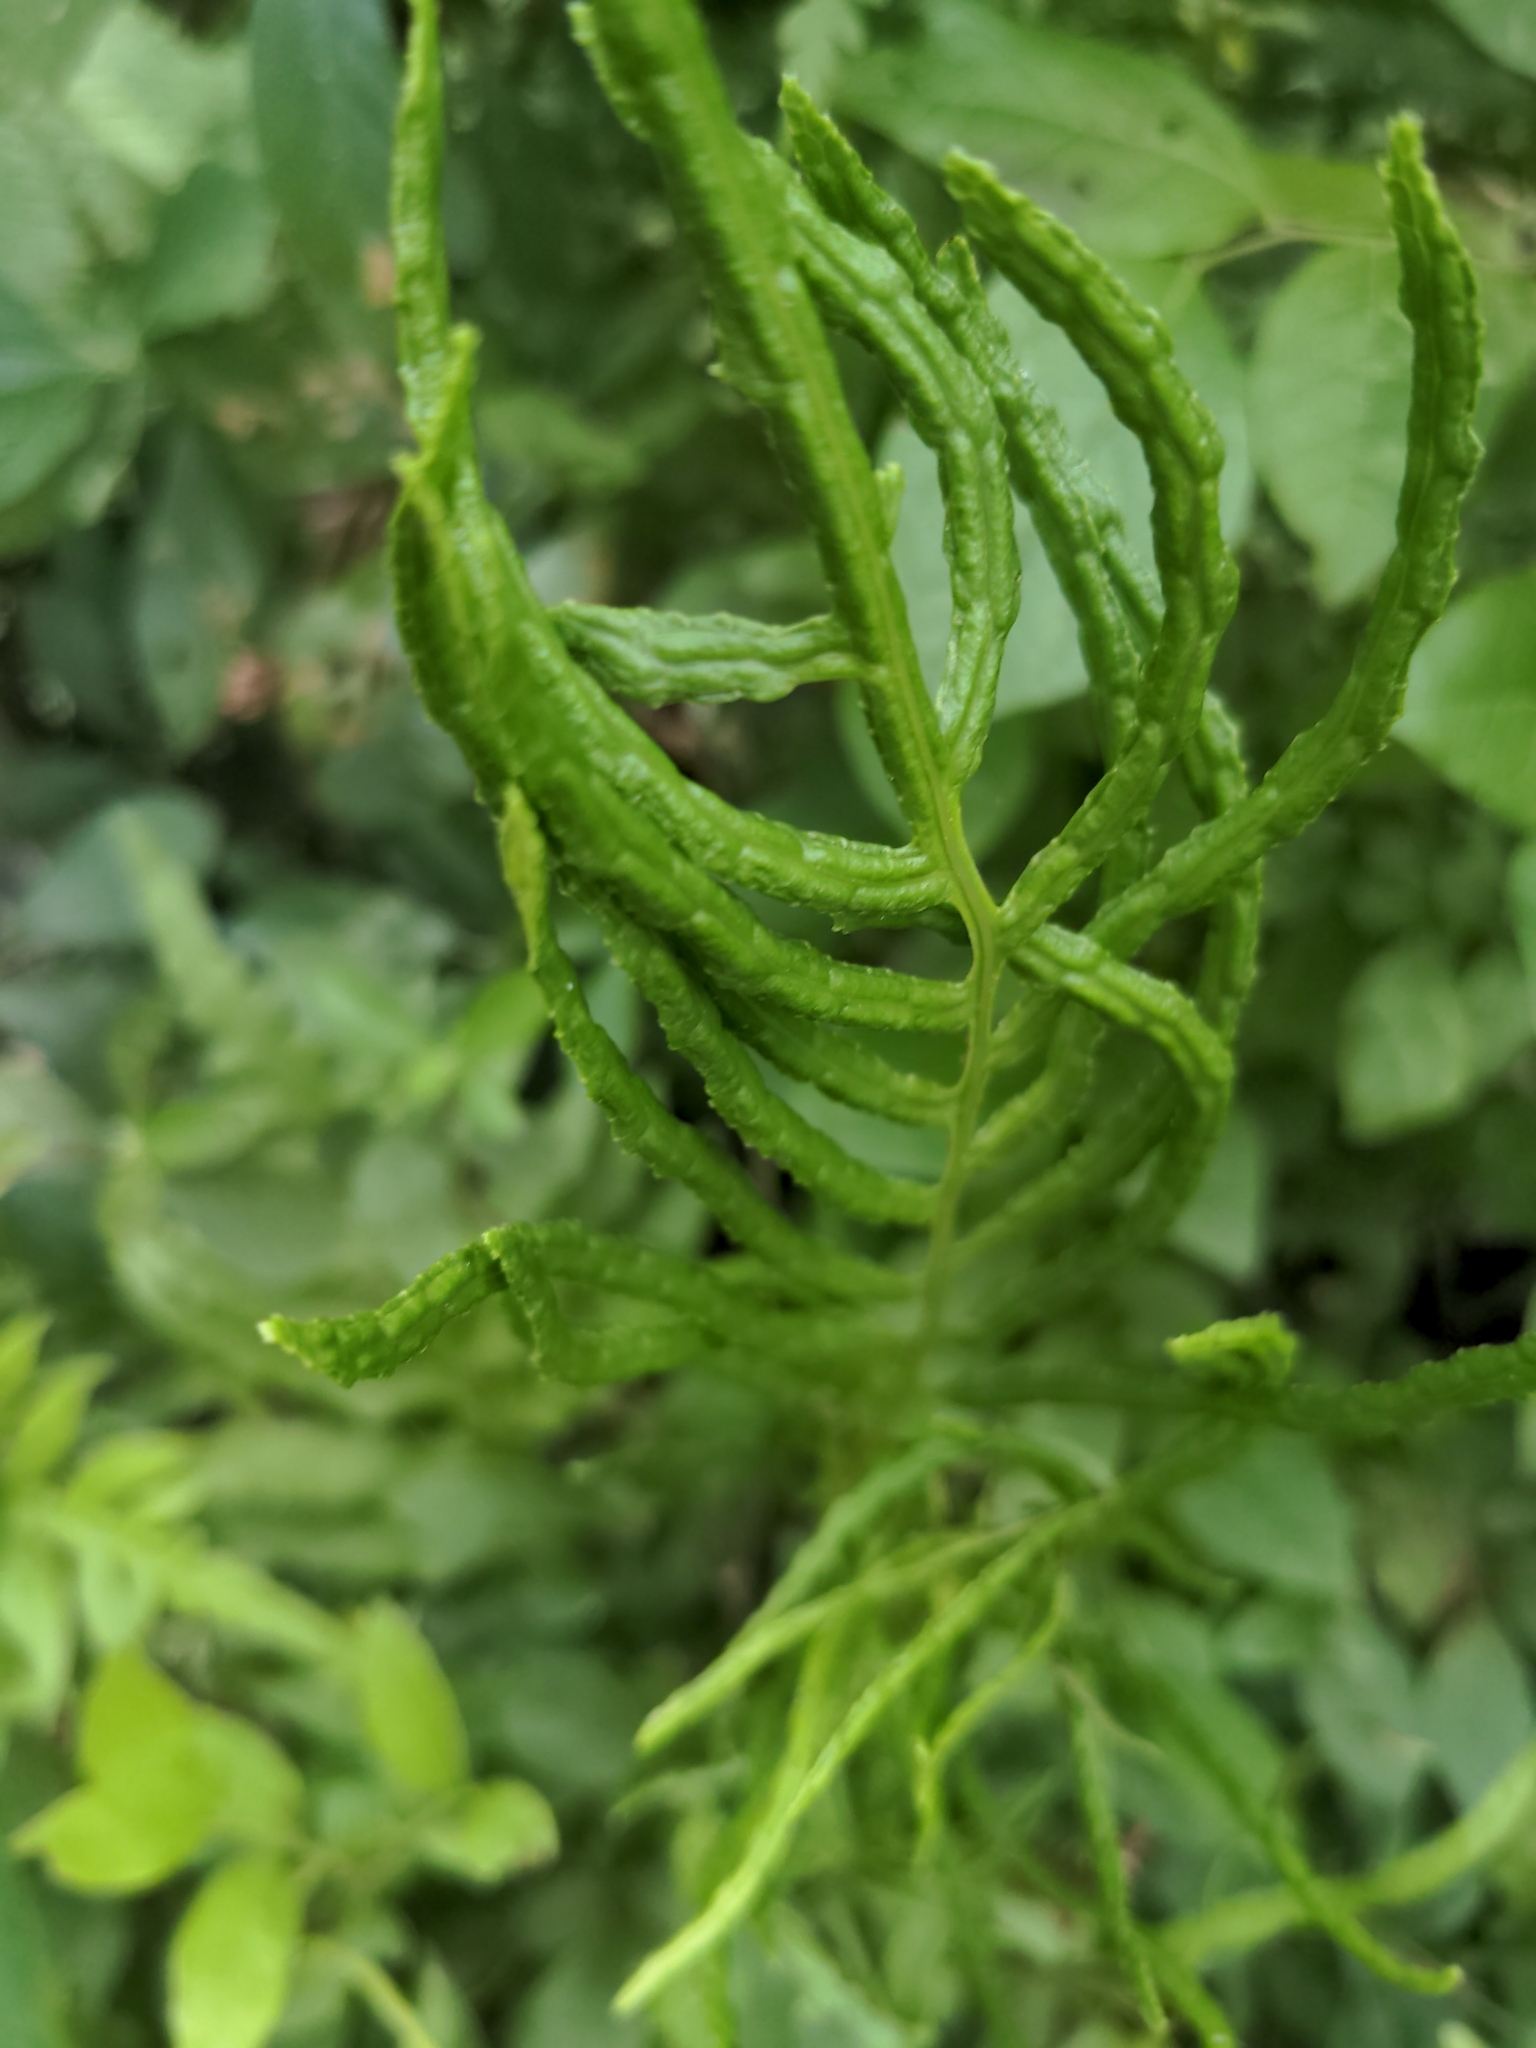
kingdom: Plantae
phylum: Tracheophyta
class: Polypodiopsida
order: Polypodiales
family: Blechnaceae
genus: Lorinseria
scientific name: Lorinseria areolata
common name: Dwarf chain fern
